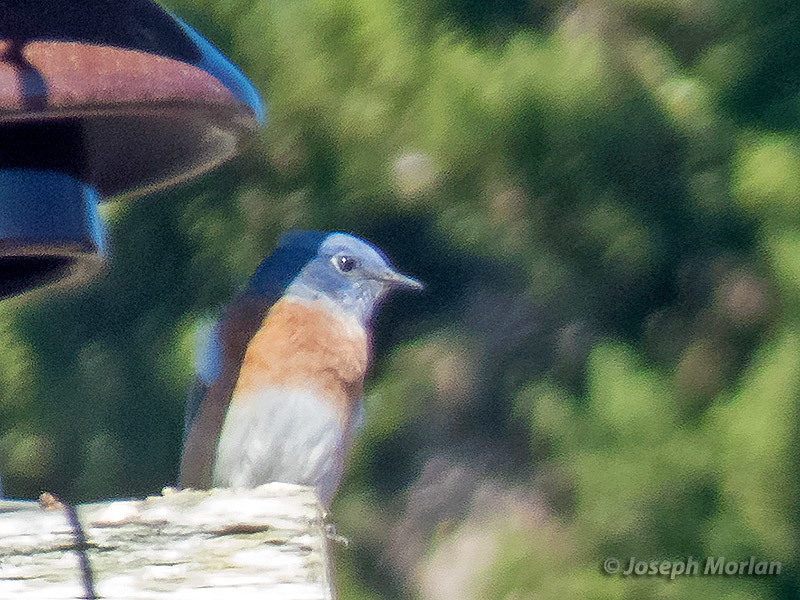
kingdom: Animalia
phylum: Chordata
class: Aves
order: Passeriformes
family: Turdidae
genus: Sialia
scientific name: Sialia mexicana
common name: Western bluebird
